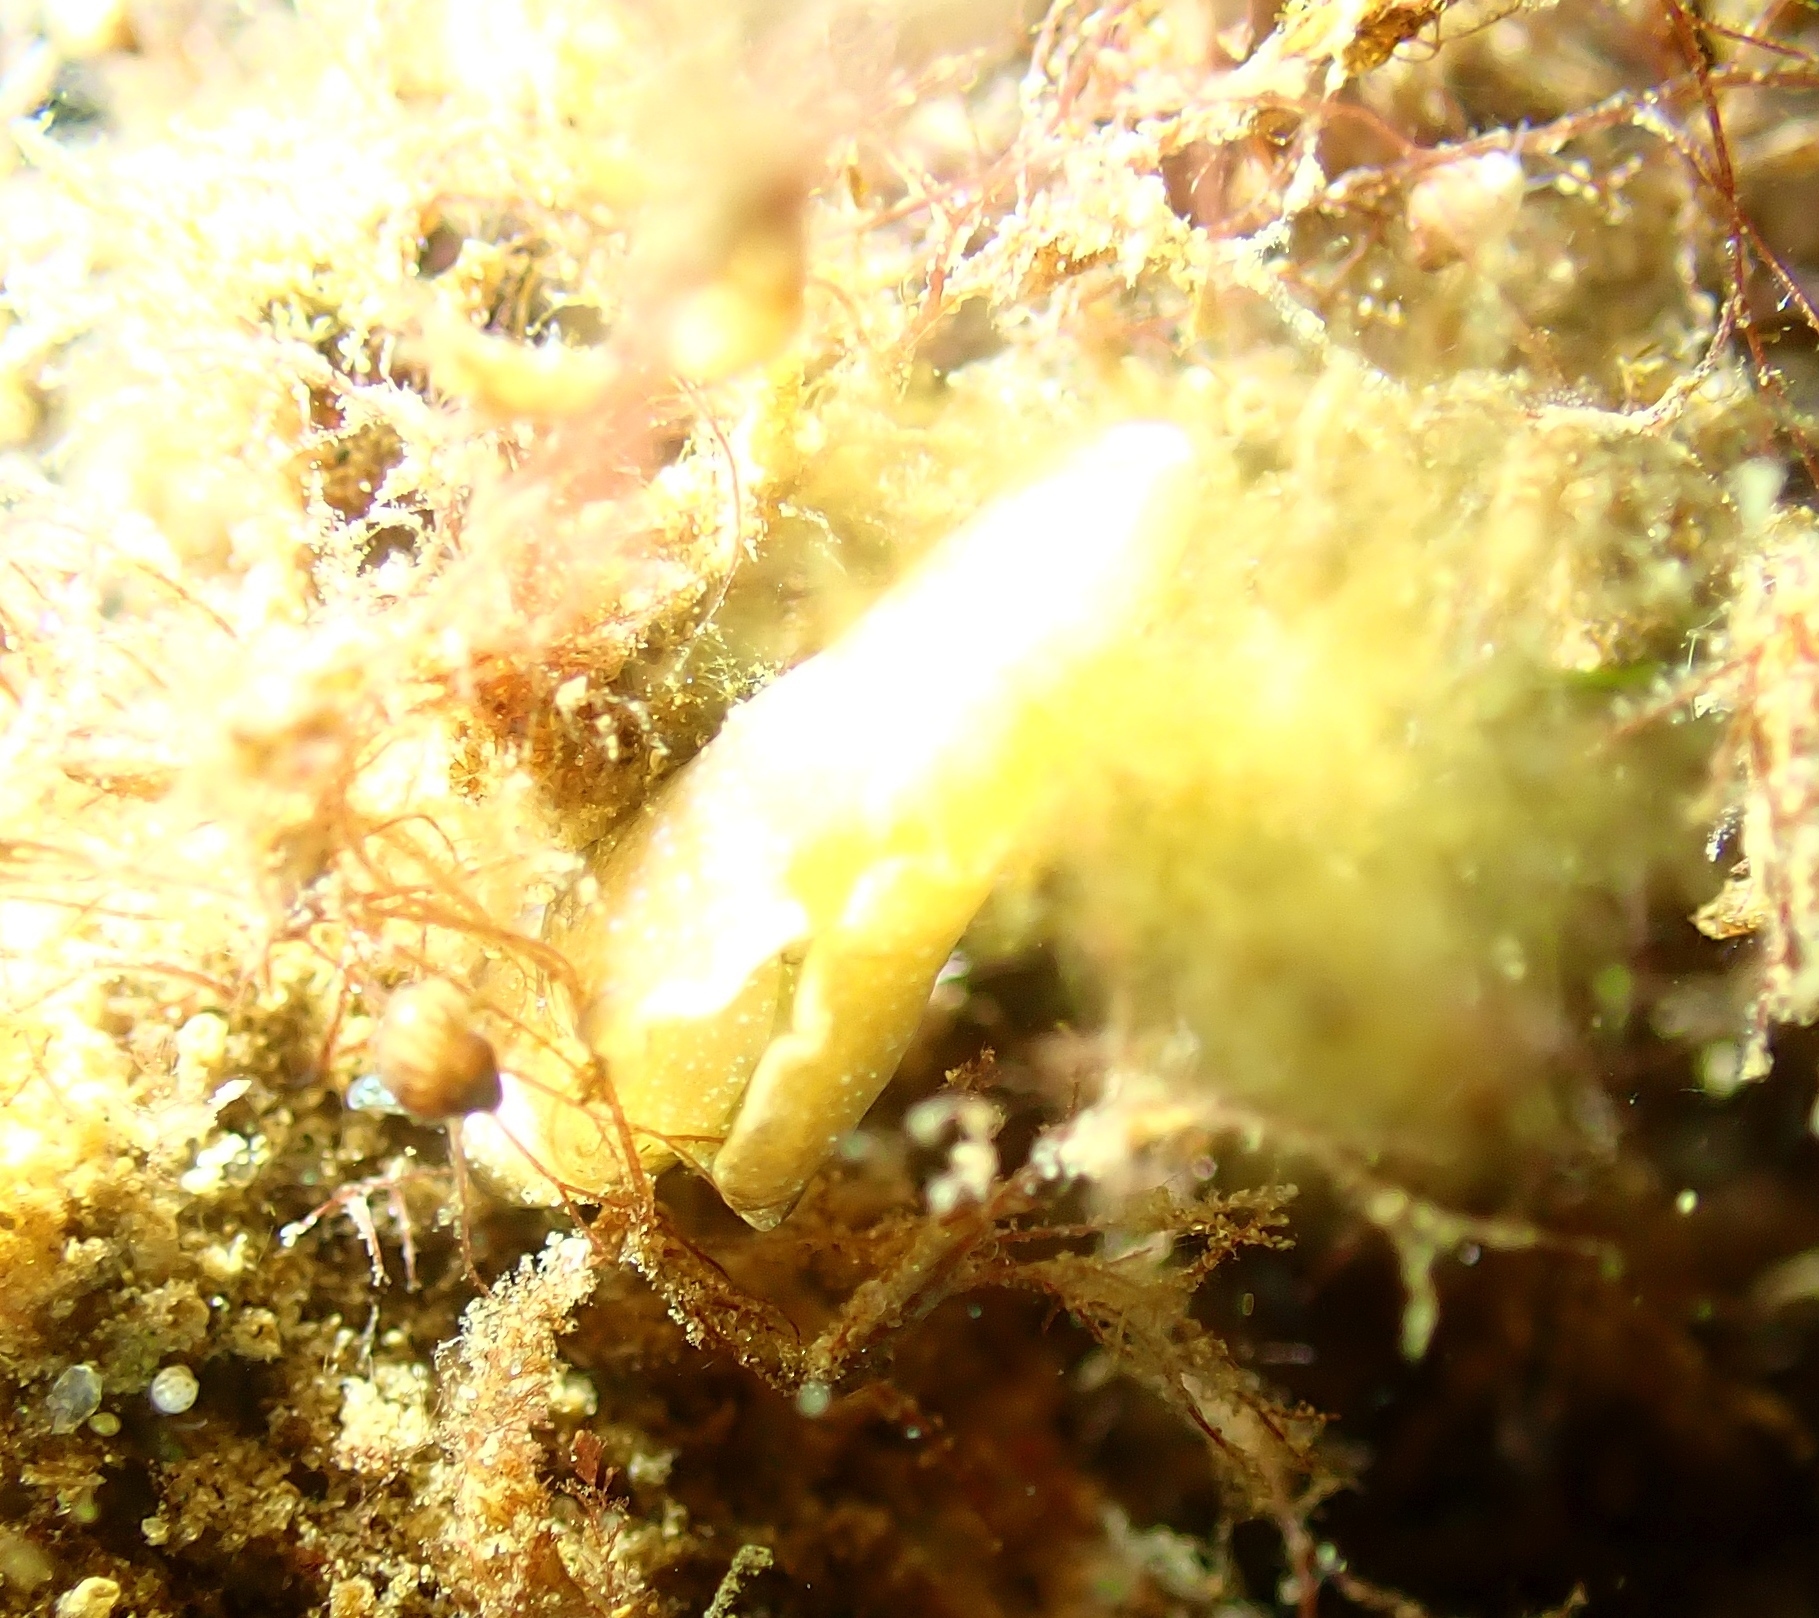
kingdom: Animalia
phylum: Mollusca
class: Gastropoda
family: Plakobranchidae
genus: Elysia
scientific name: Elysia viridis
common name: Green elysia
